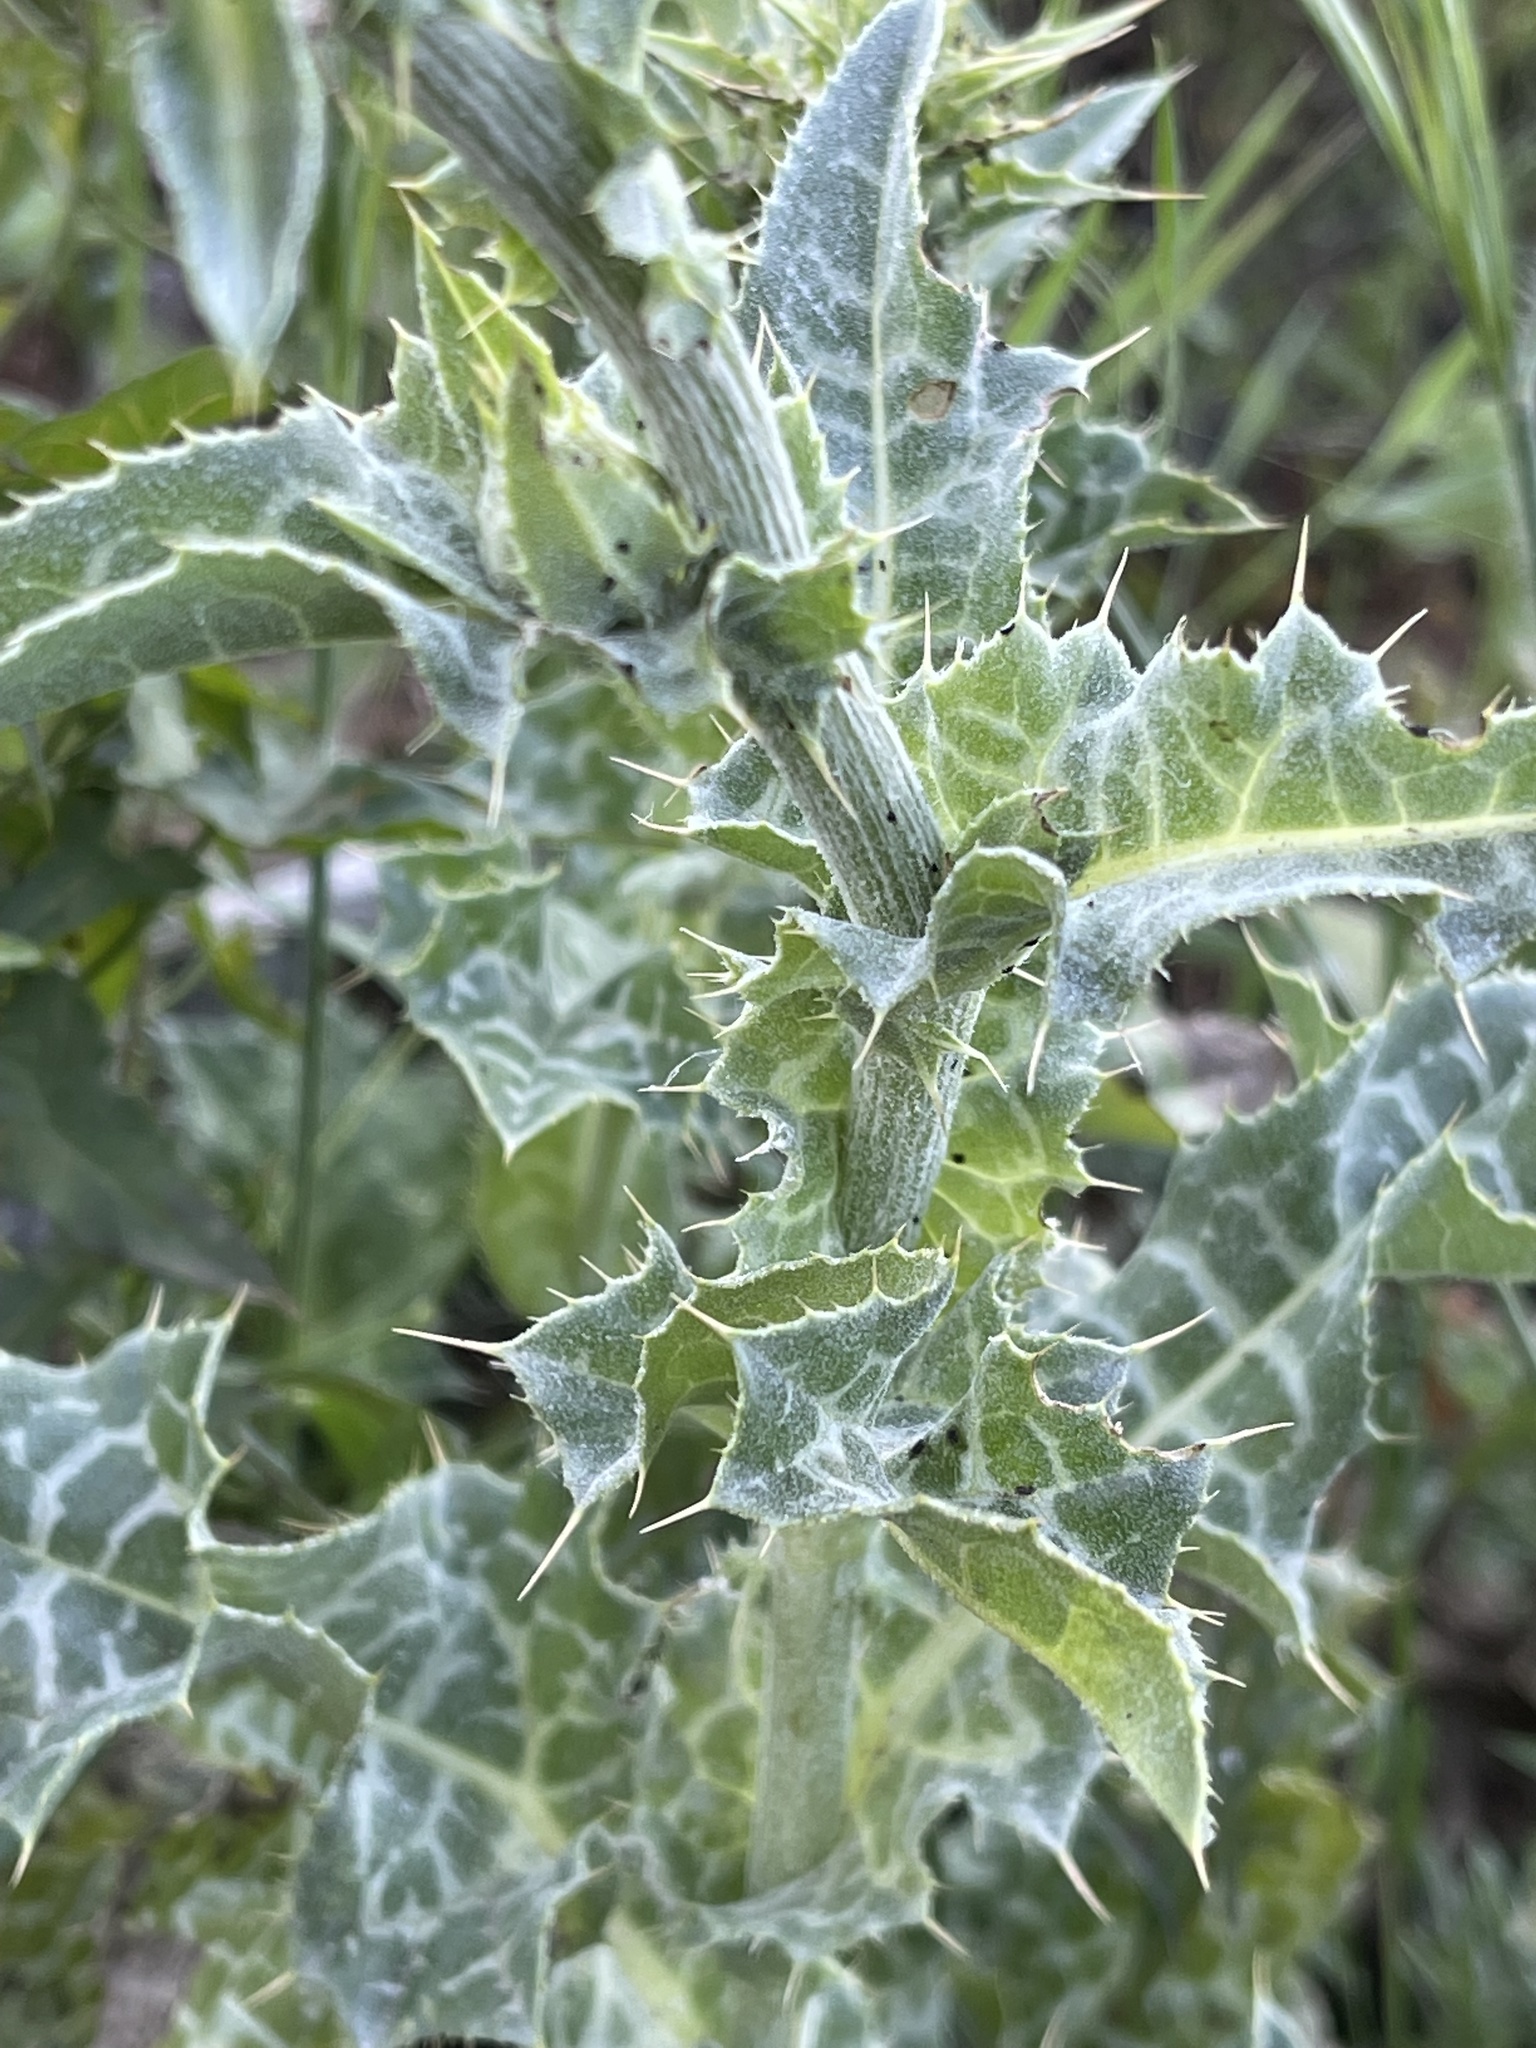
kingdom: Plantae
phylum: Tracheophyta
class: Magnoliopsida
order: Asterales
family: Asteraceae
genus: Silybum
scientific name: Silybum marianum
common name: Milk thistle
